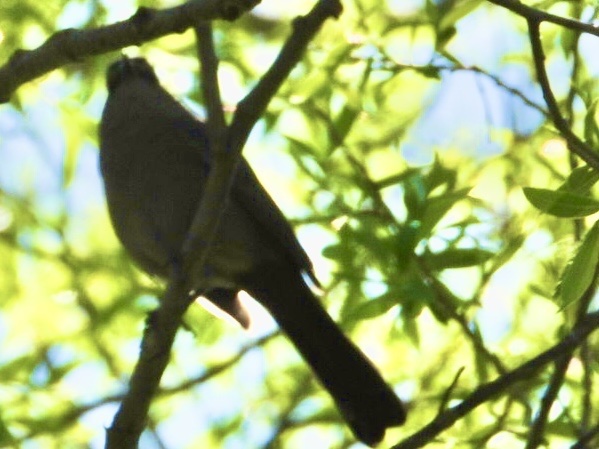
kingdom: Animalia
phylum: Chordata
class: Aves
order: Passeriformes
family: Mimidae
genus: Dumetella
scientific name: Dumetella carolinensis
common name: Gray catbird
